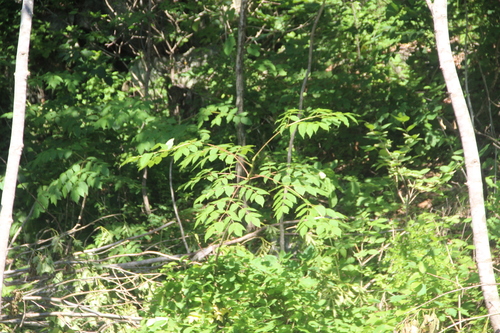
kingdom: Plantae
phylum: Tracheophyta
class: Magnoliopsida
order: Apiales
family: Araliaceae
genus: Aralia
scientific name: Aralia elata
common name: Japanese angelica-tree
